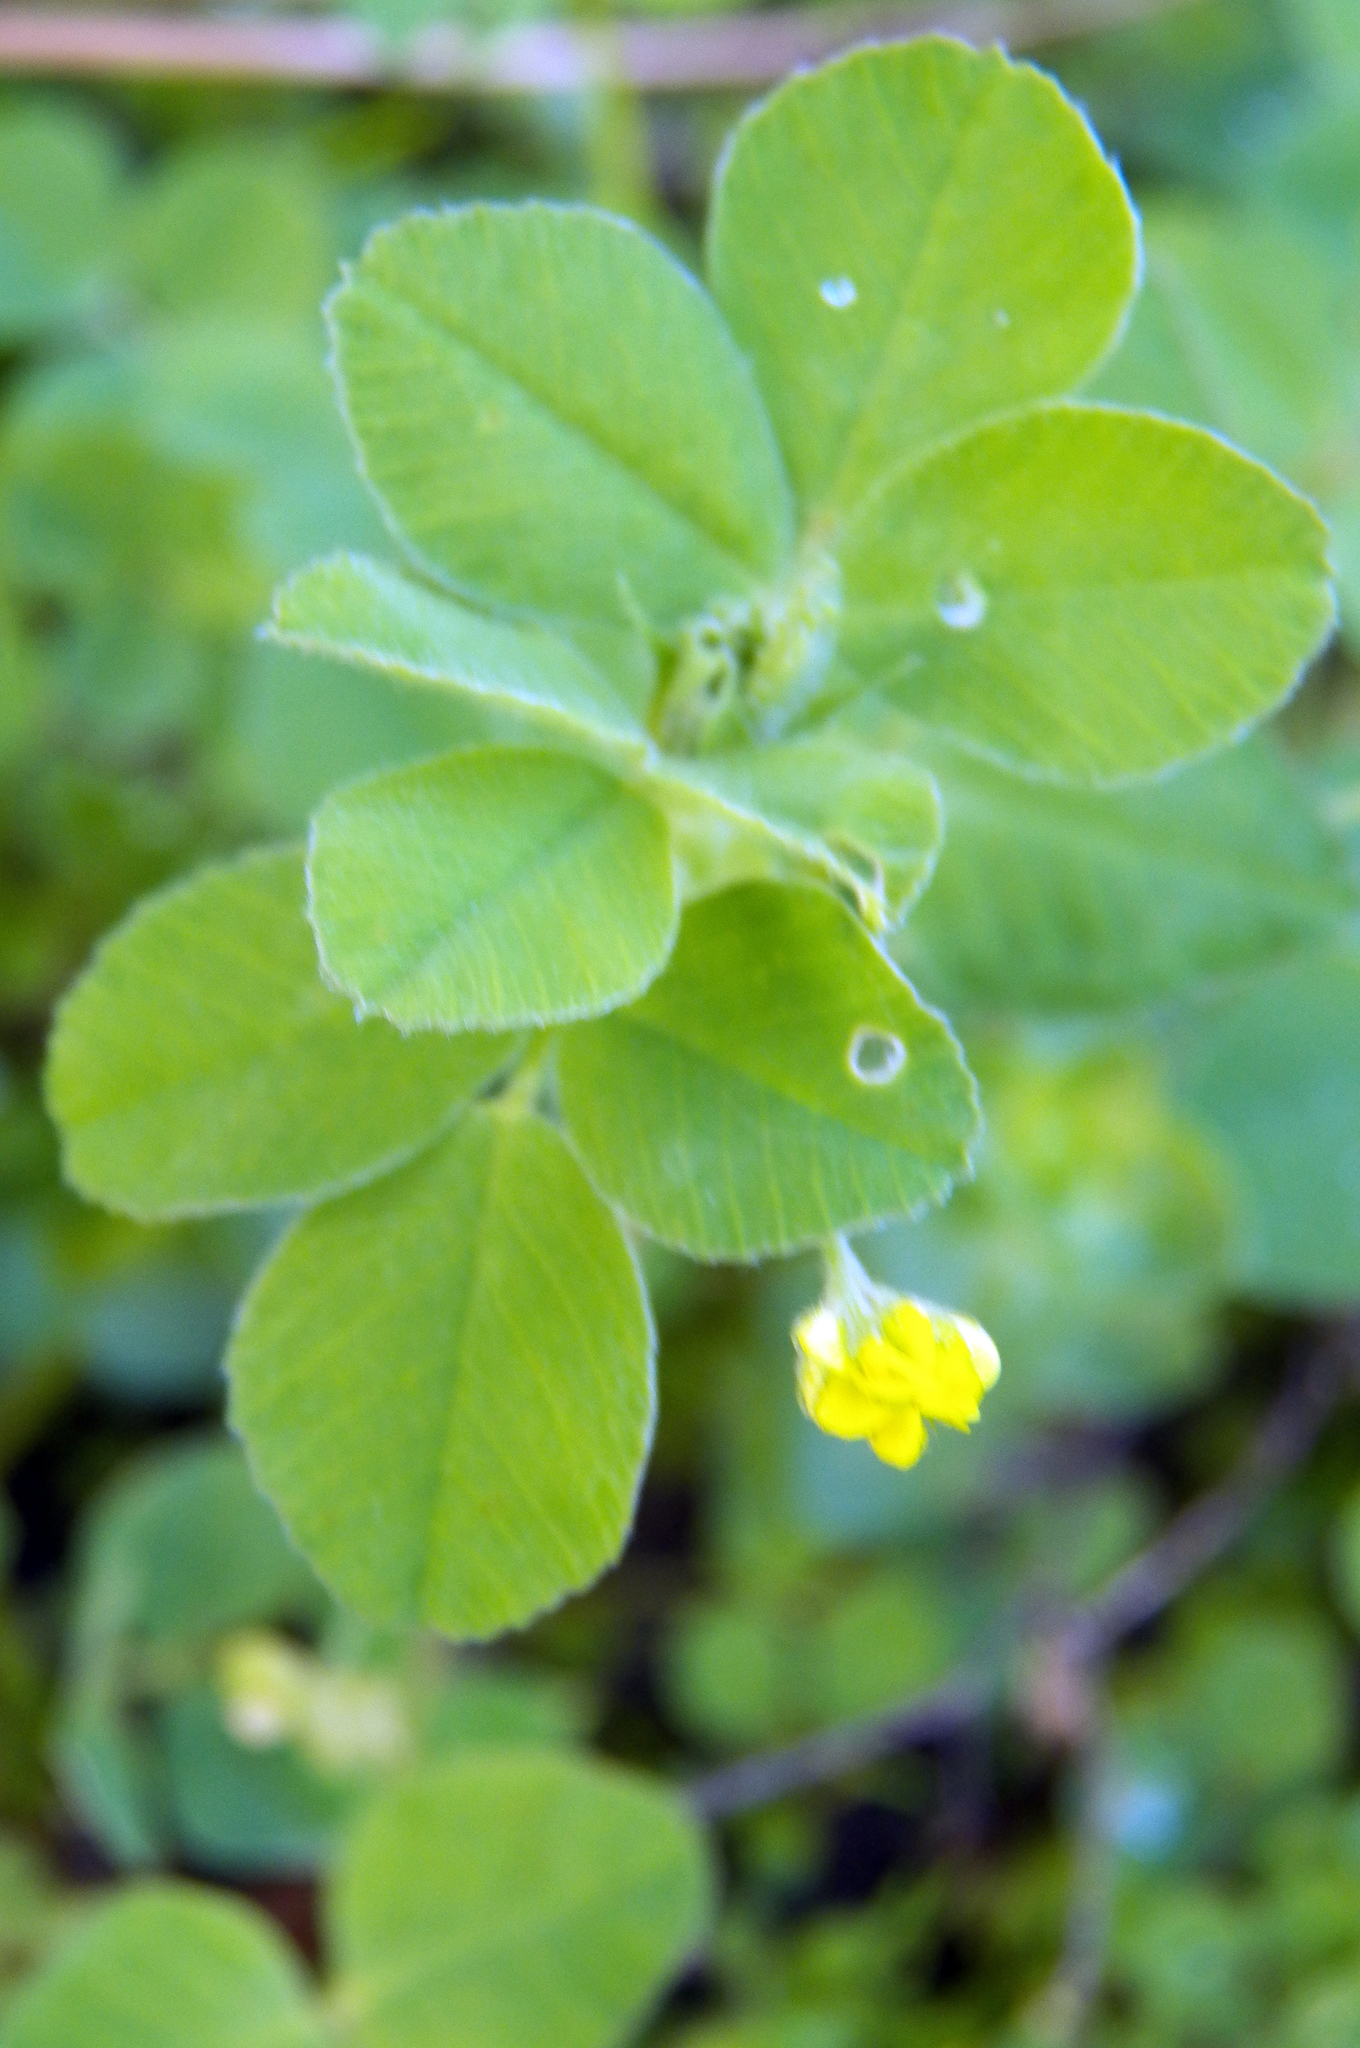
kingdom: Plantae
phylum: Tracheophyta
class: Magnoliopsida
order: Fabales
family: Fabaceae
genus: Medicago
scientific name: Medicago lupulina
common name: Black medick
